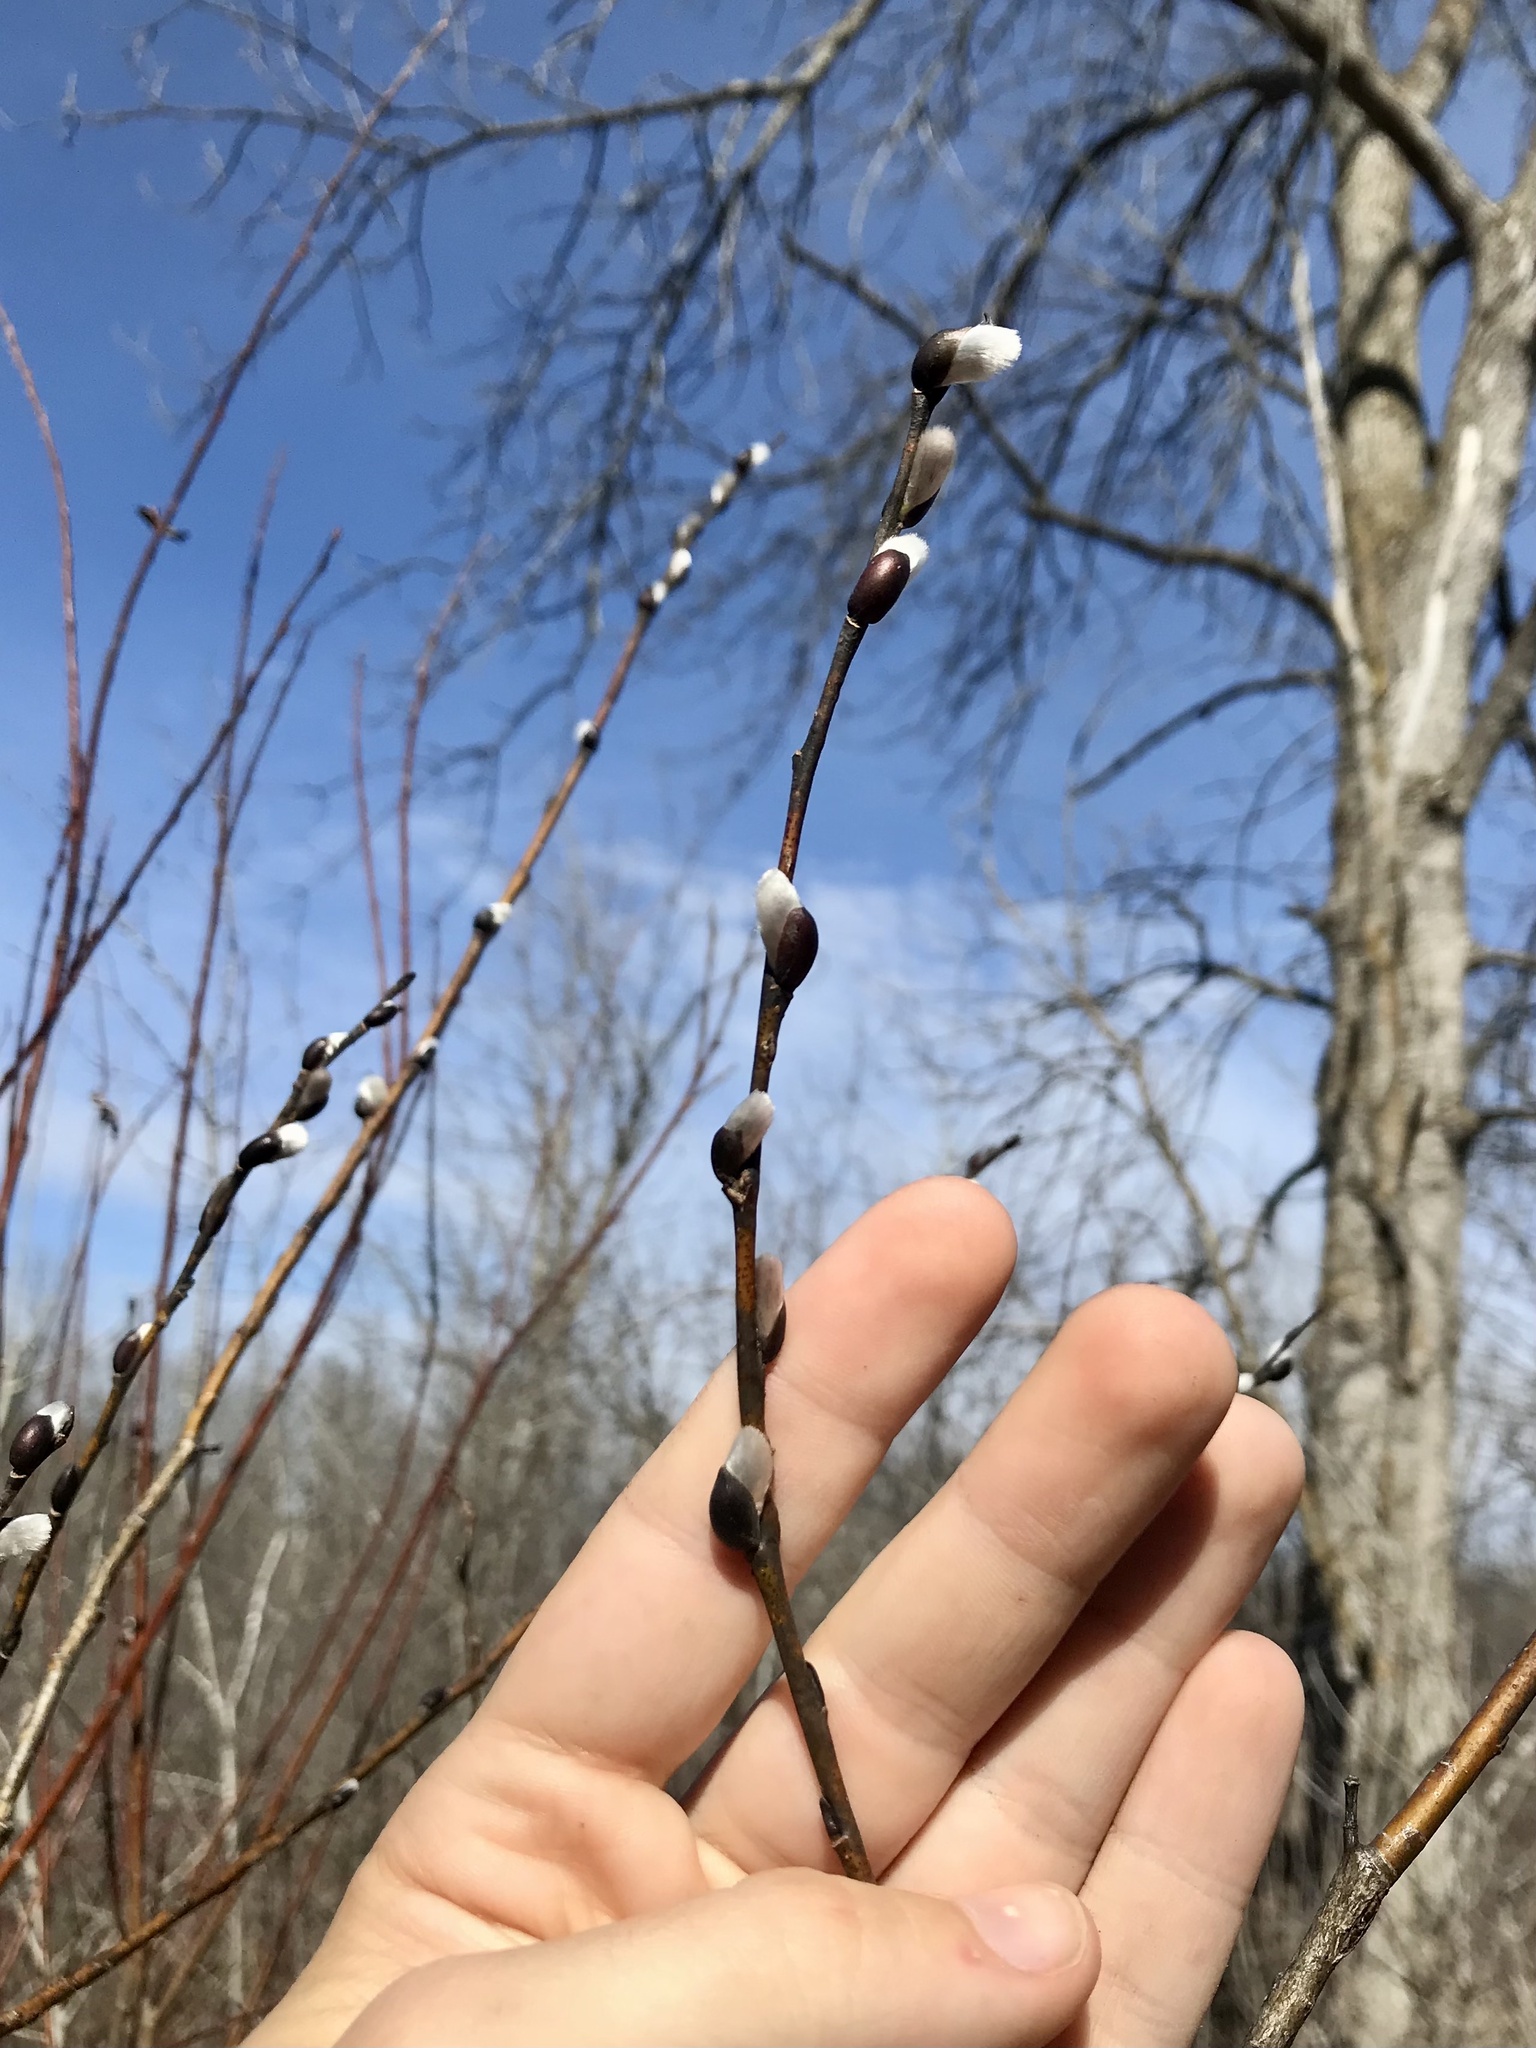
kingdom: Plantae
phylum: Tracheophyta
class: Magnoliopsida
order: Malpighiales
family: Salicaceae
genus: Salix
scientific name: Salix discolor
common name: Glaucous willow
